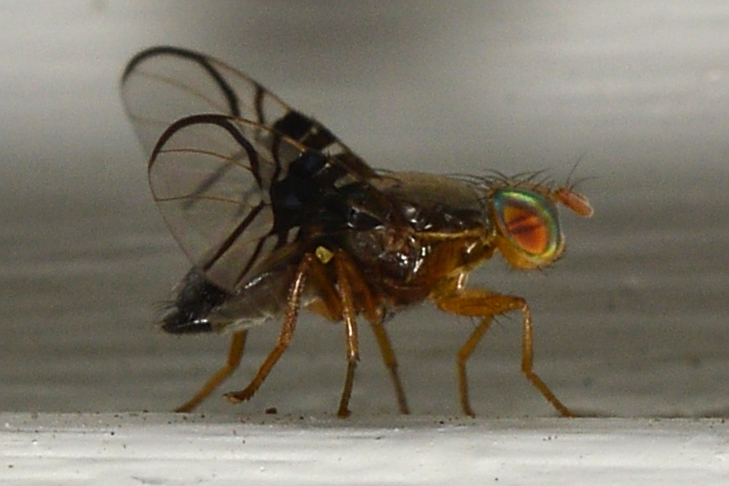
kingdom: Animalia
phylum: Arthropoda
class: Insecta
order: Diptera
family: Tephritidae
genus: Anomoia
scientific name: Anomoia purmunda
